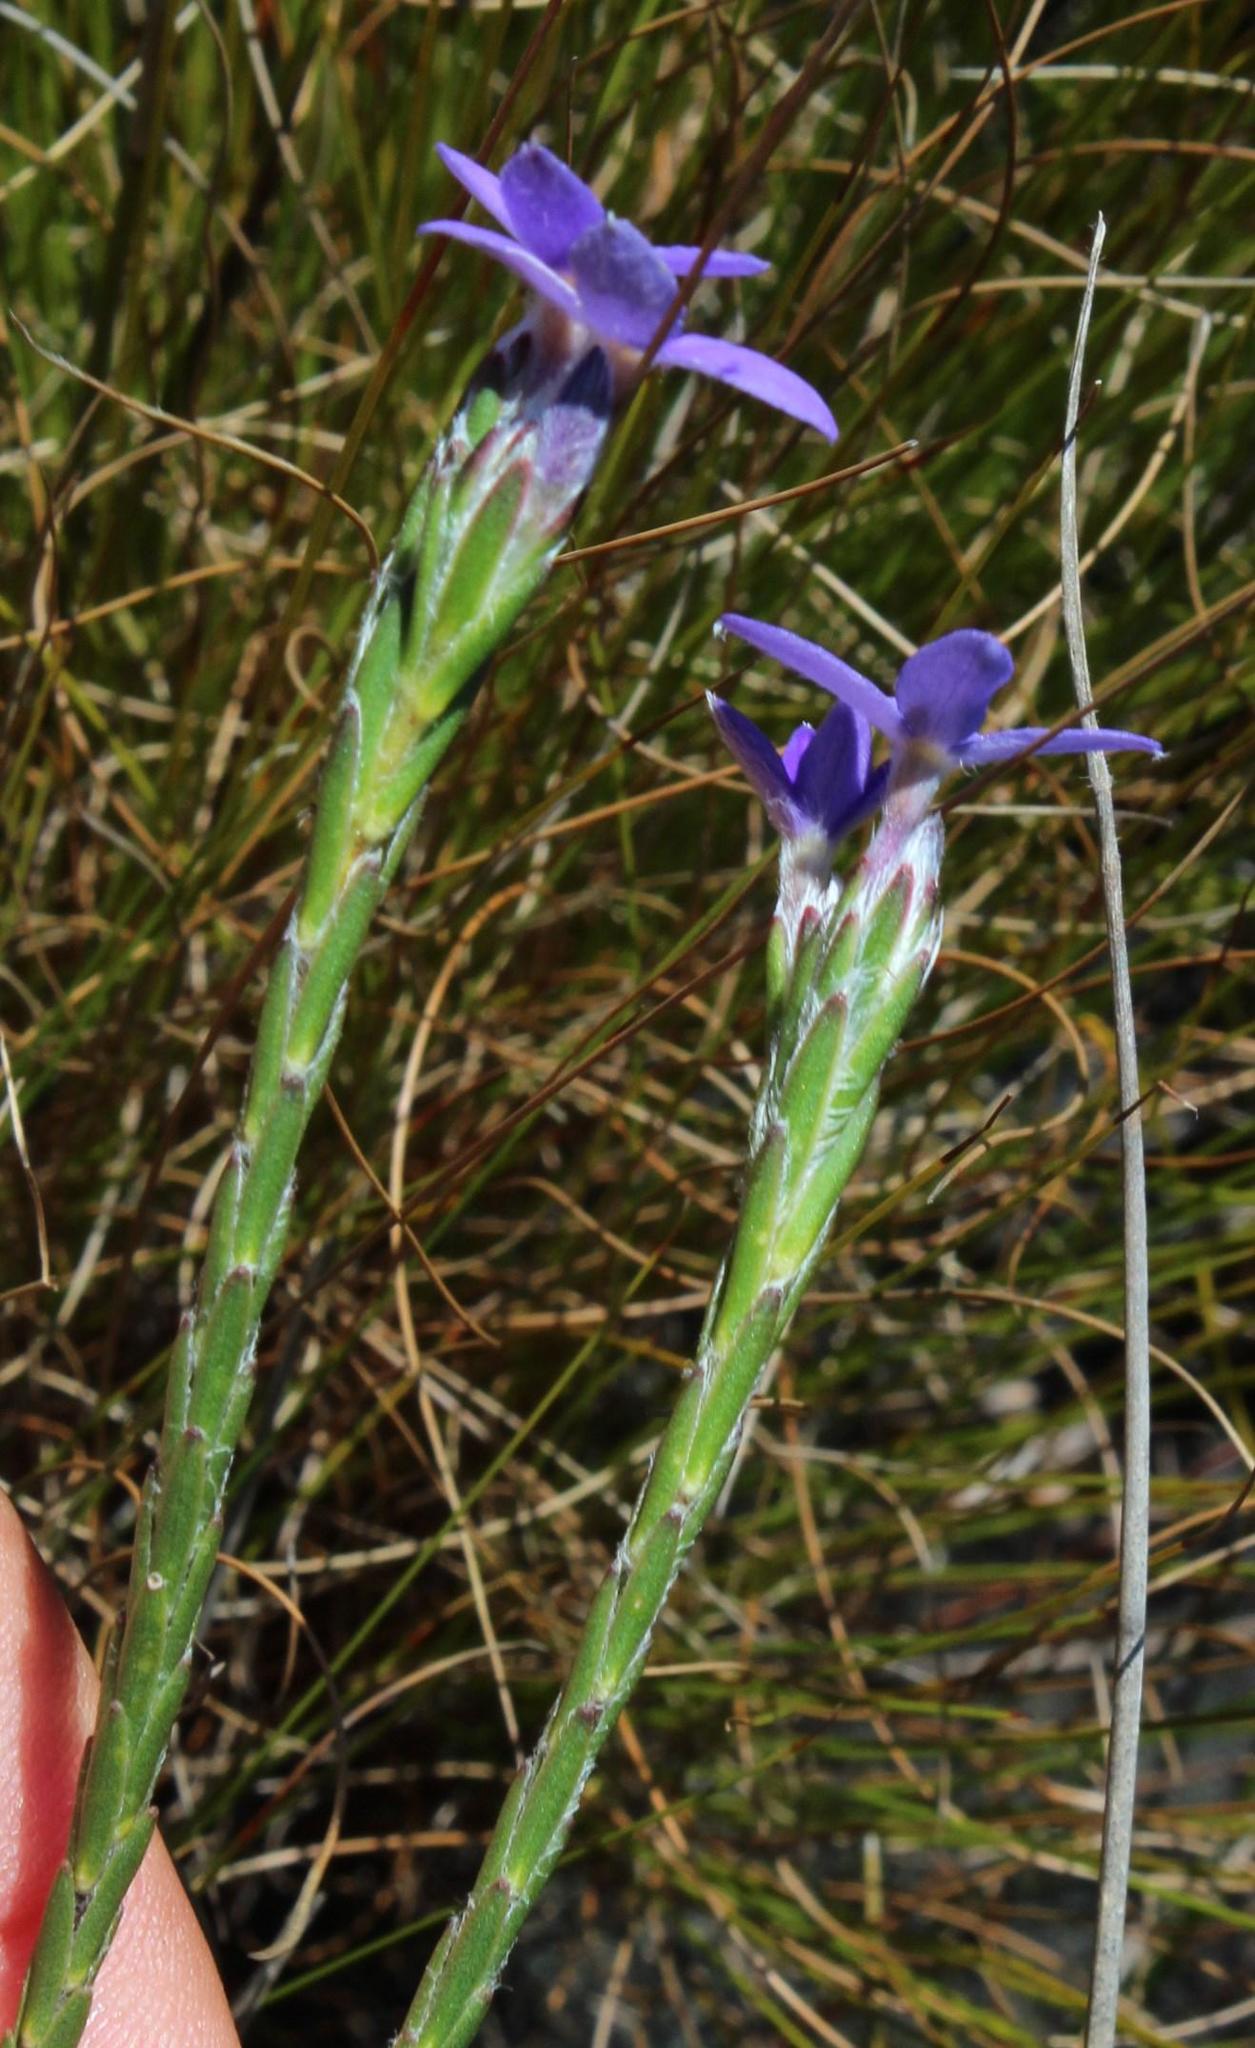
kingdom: Plantae
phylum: Tracheophyta
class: Magnoliopsida
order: Malvales
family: Thymelaeaceae
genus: Gnidia
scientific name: Gnidia penicillata
